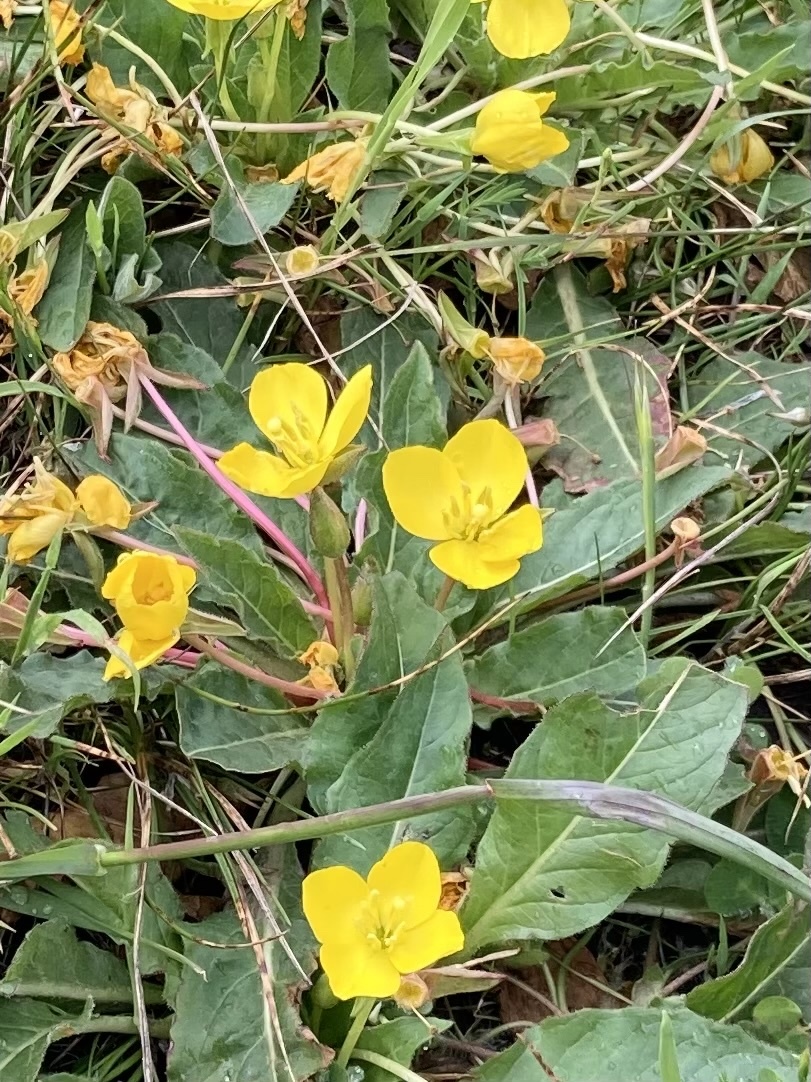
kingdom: Plantae
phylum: Tracheophyta
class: Magnoliopsida
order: Myrtales
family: Onagraceae
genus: Taraxia
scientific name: Taraxia ovata
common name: Goldeneggs
